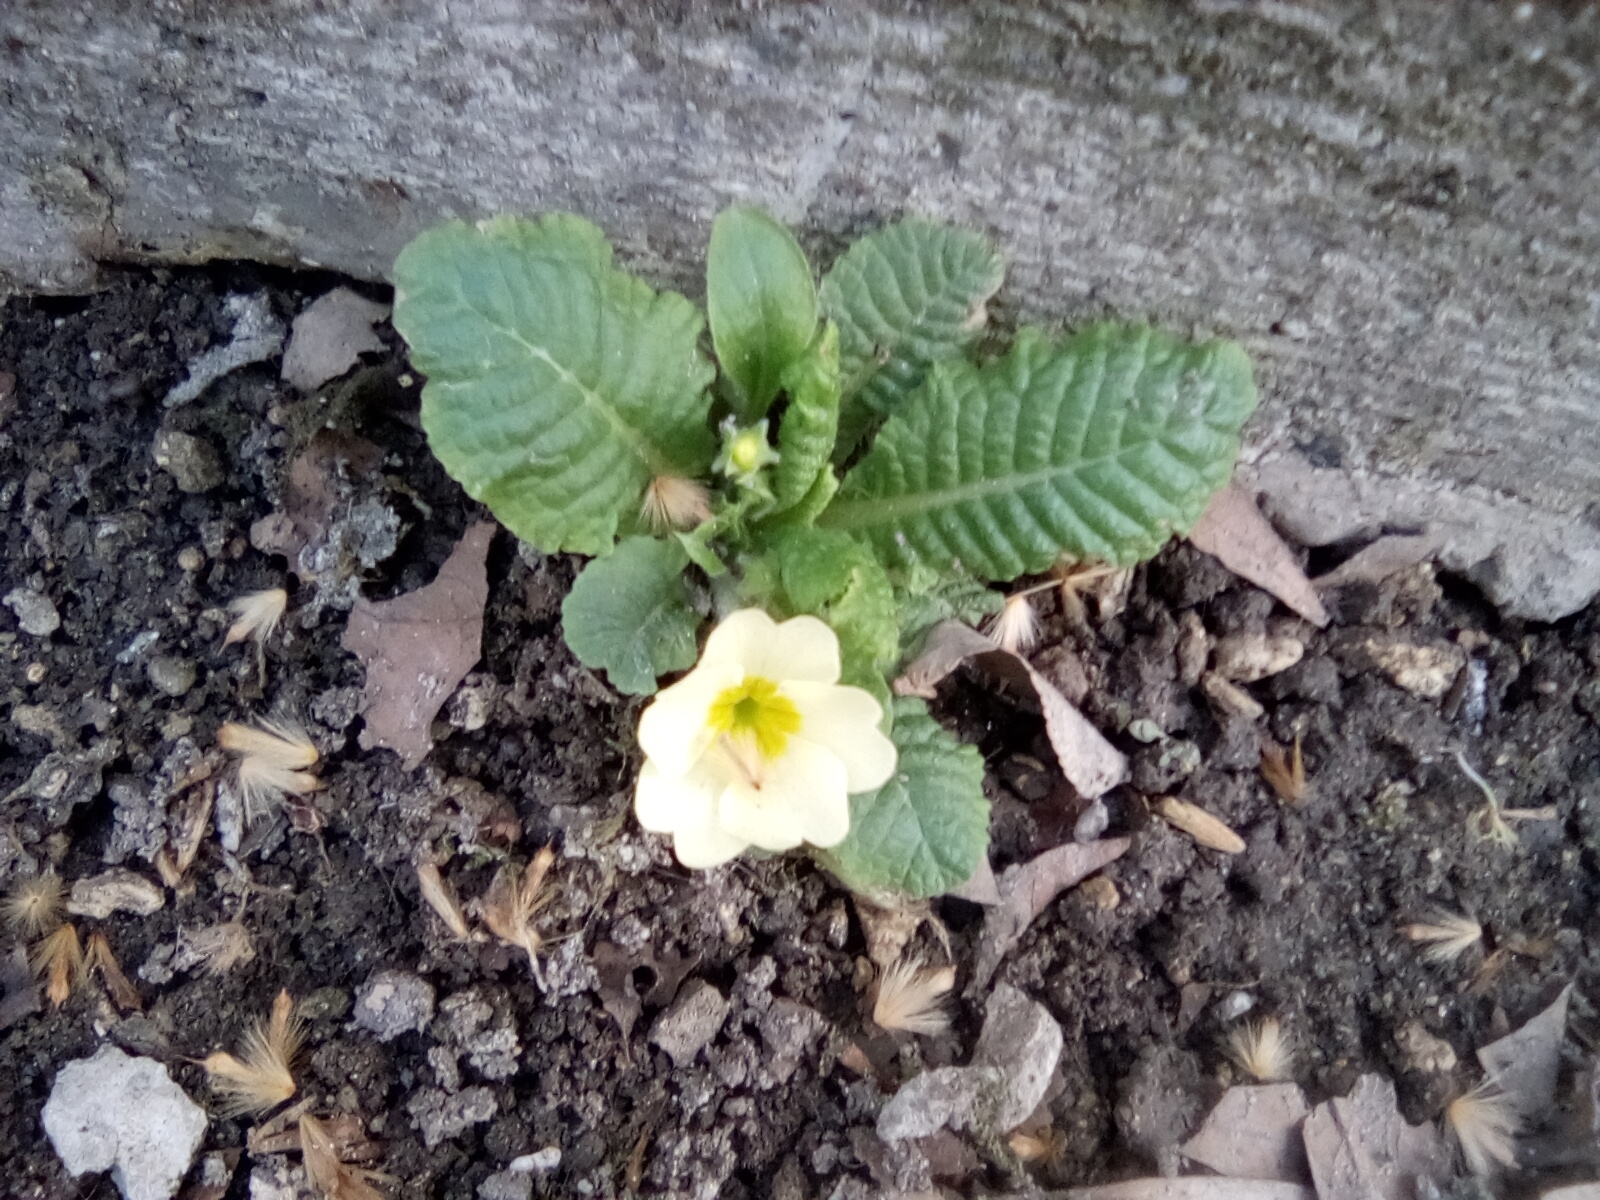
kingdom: Plantae
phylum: Tracheophyta
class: Magnoliopsida
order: Ericales
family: Primulaceae
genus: Primula
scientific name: Primula vulgaris
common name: Primrose
